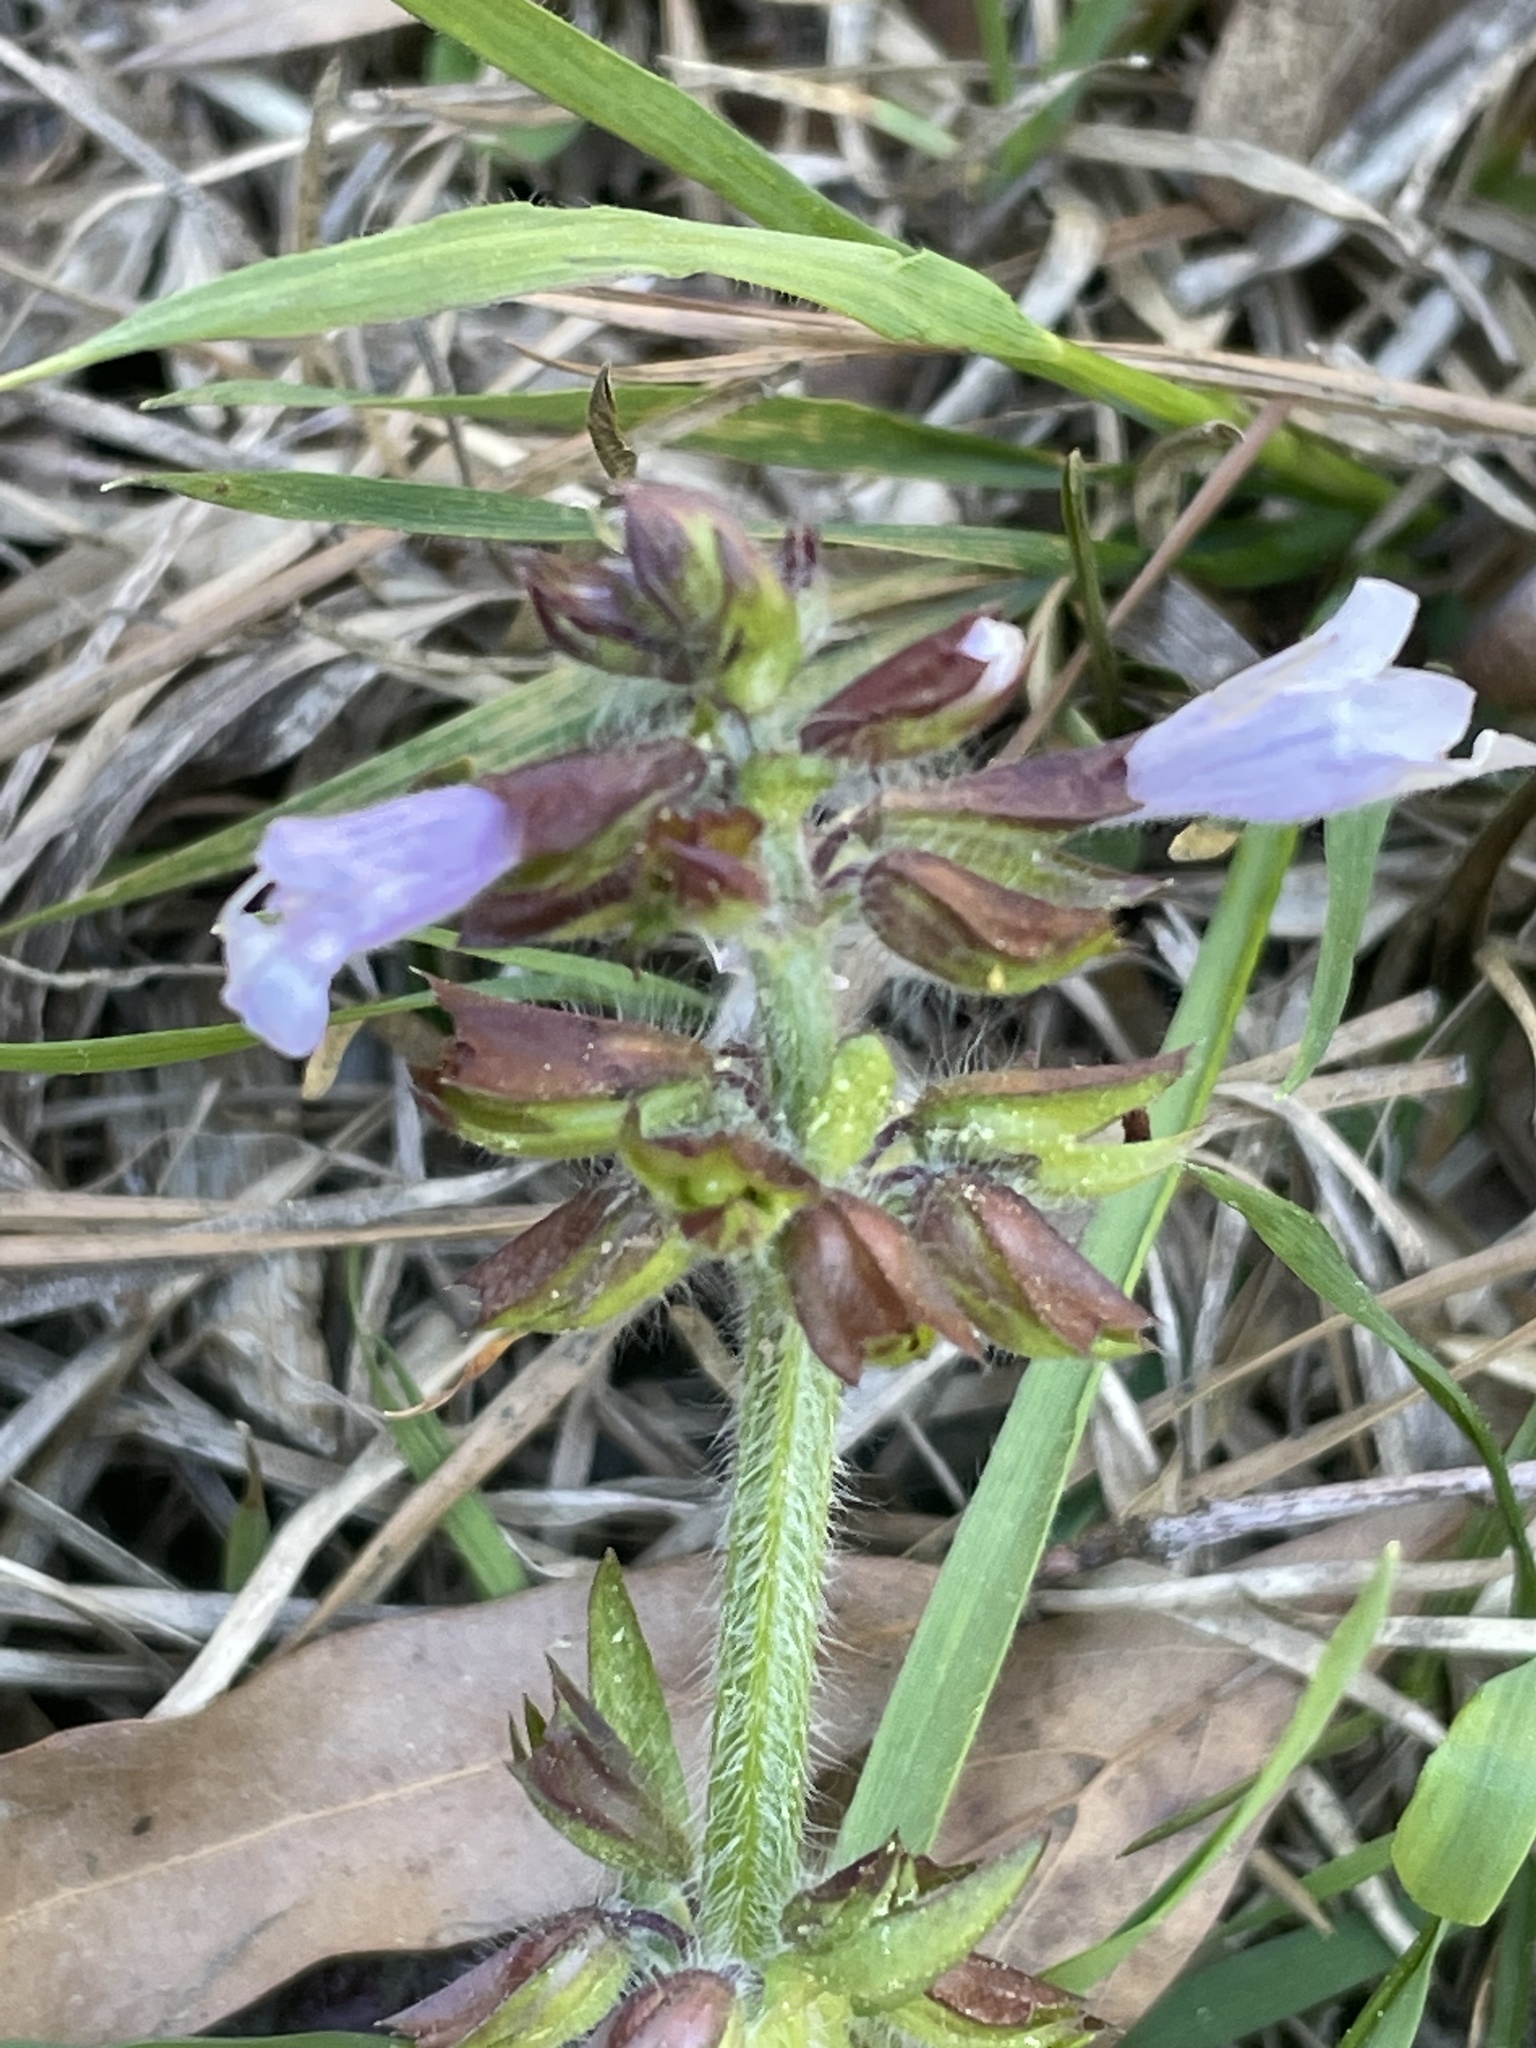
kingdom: Plantae
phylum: Tracheophyta
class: Magnoliopsida
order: Lamiales
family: Lamiaceae
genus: Salvia
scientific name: Salvia lyrata
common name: Cancerweed
